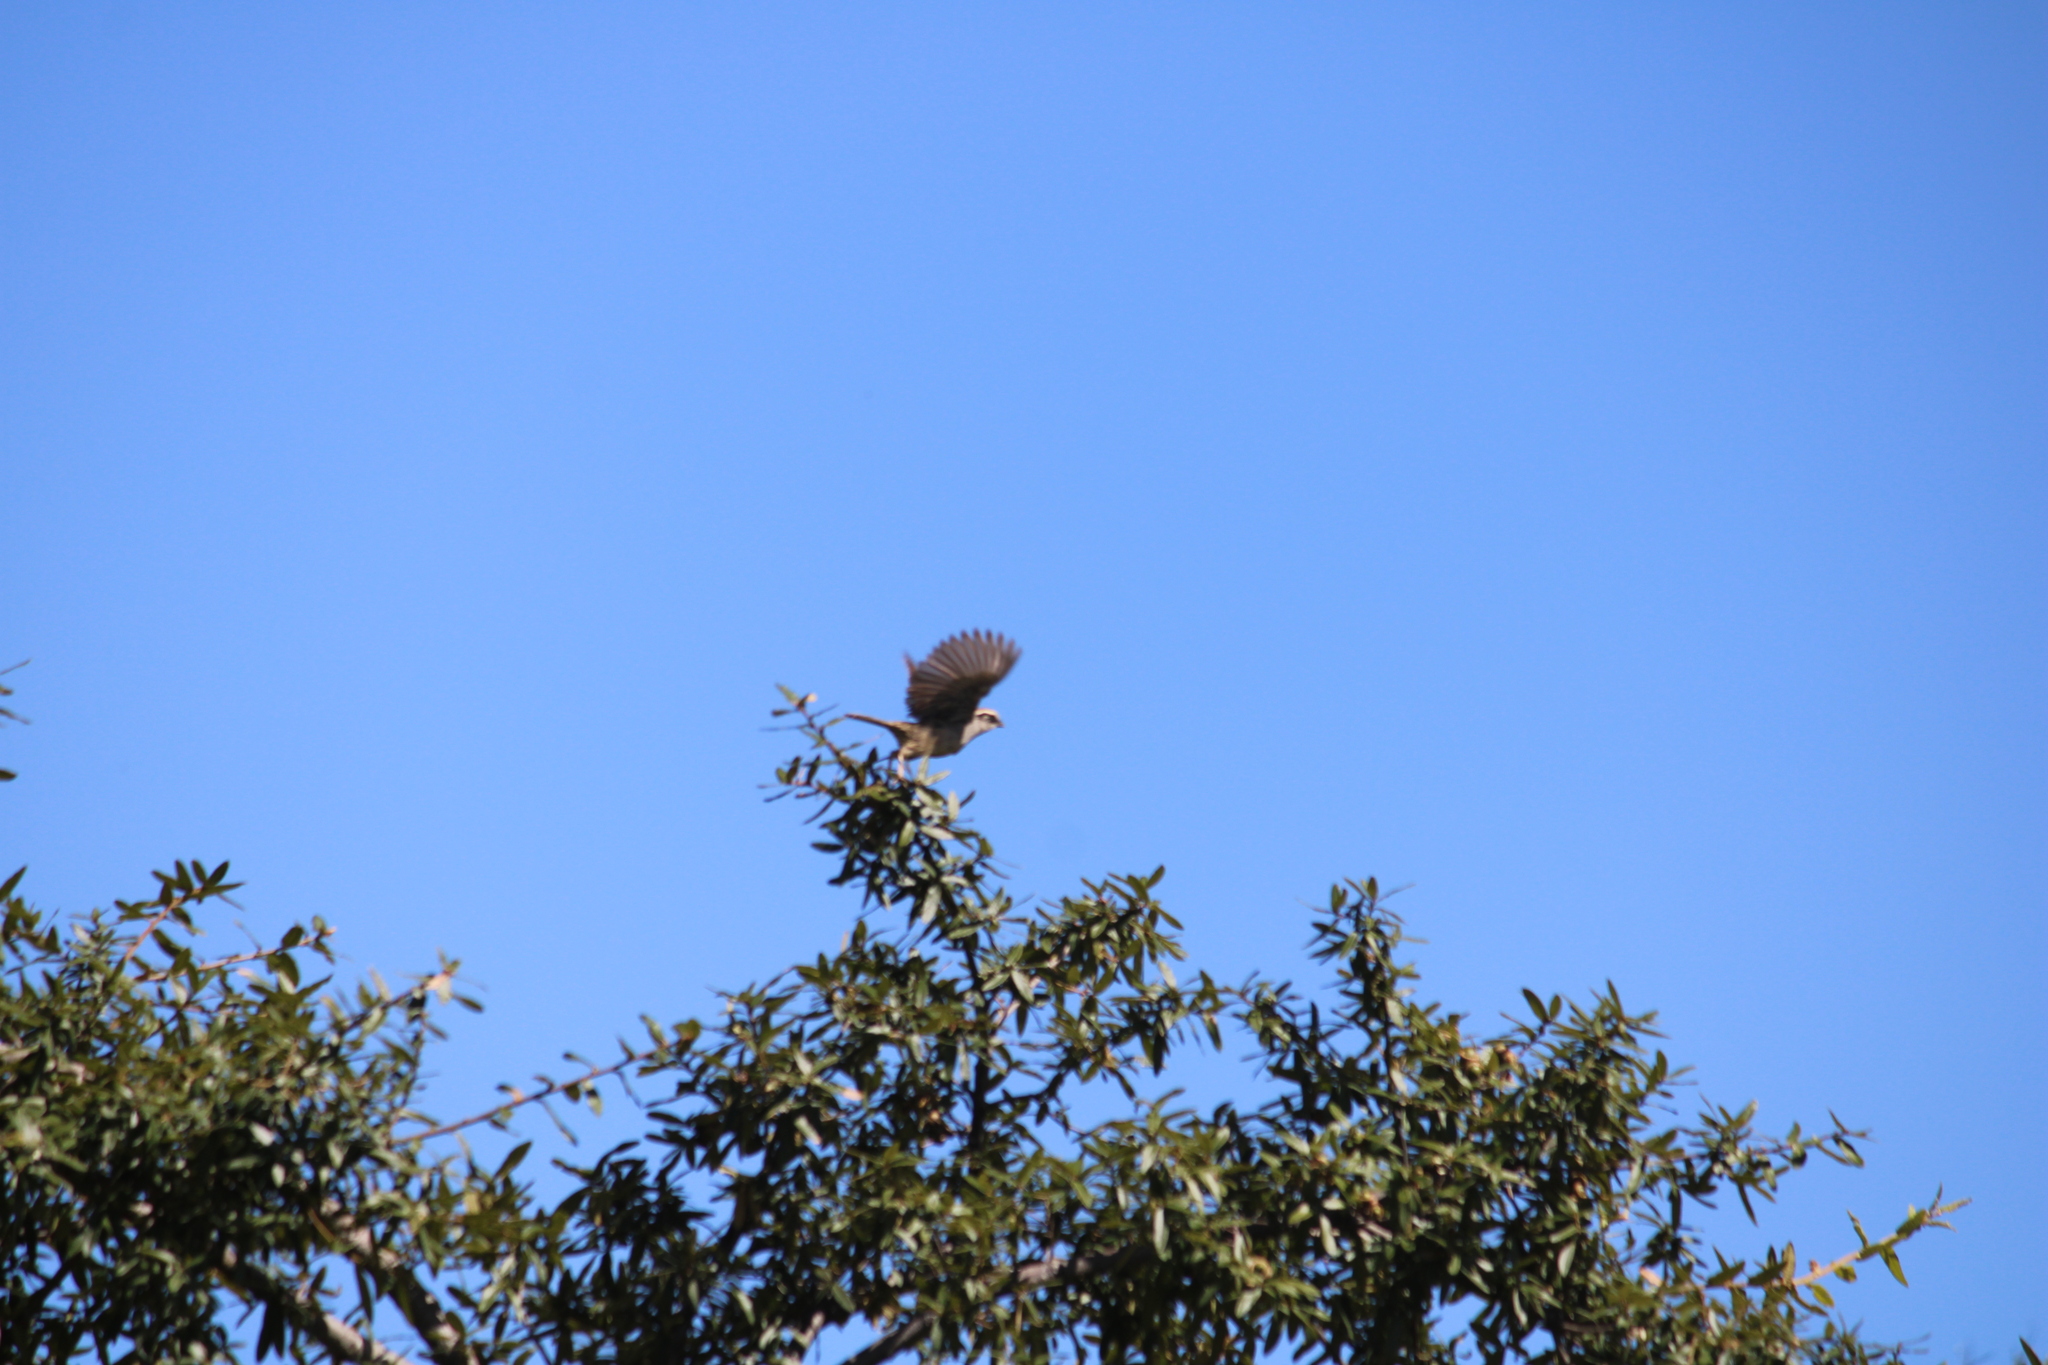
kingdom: Animalia
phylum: Chordata
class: Aves
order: Passeriformes
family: Passerellidae
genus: Oriturus
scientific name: Oriturus superciliosus
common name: Striped sparrow
